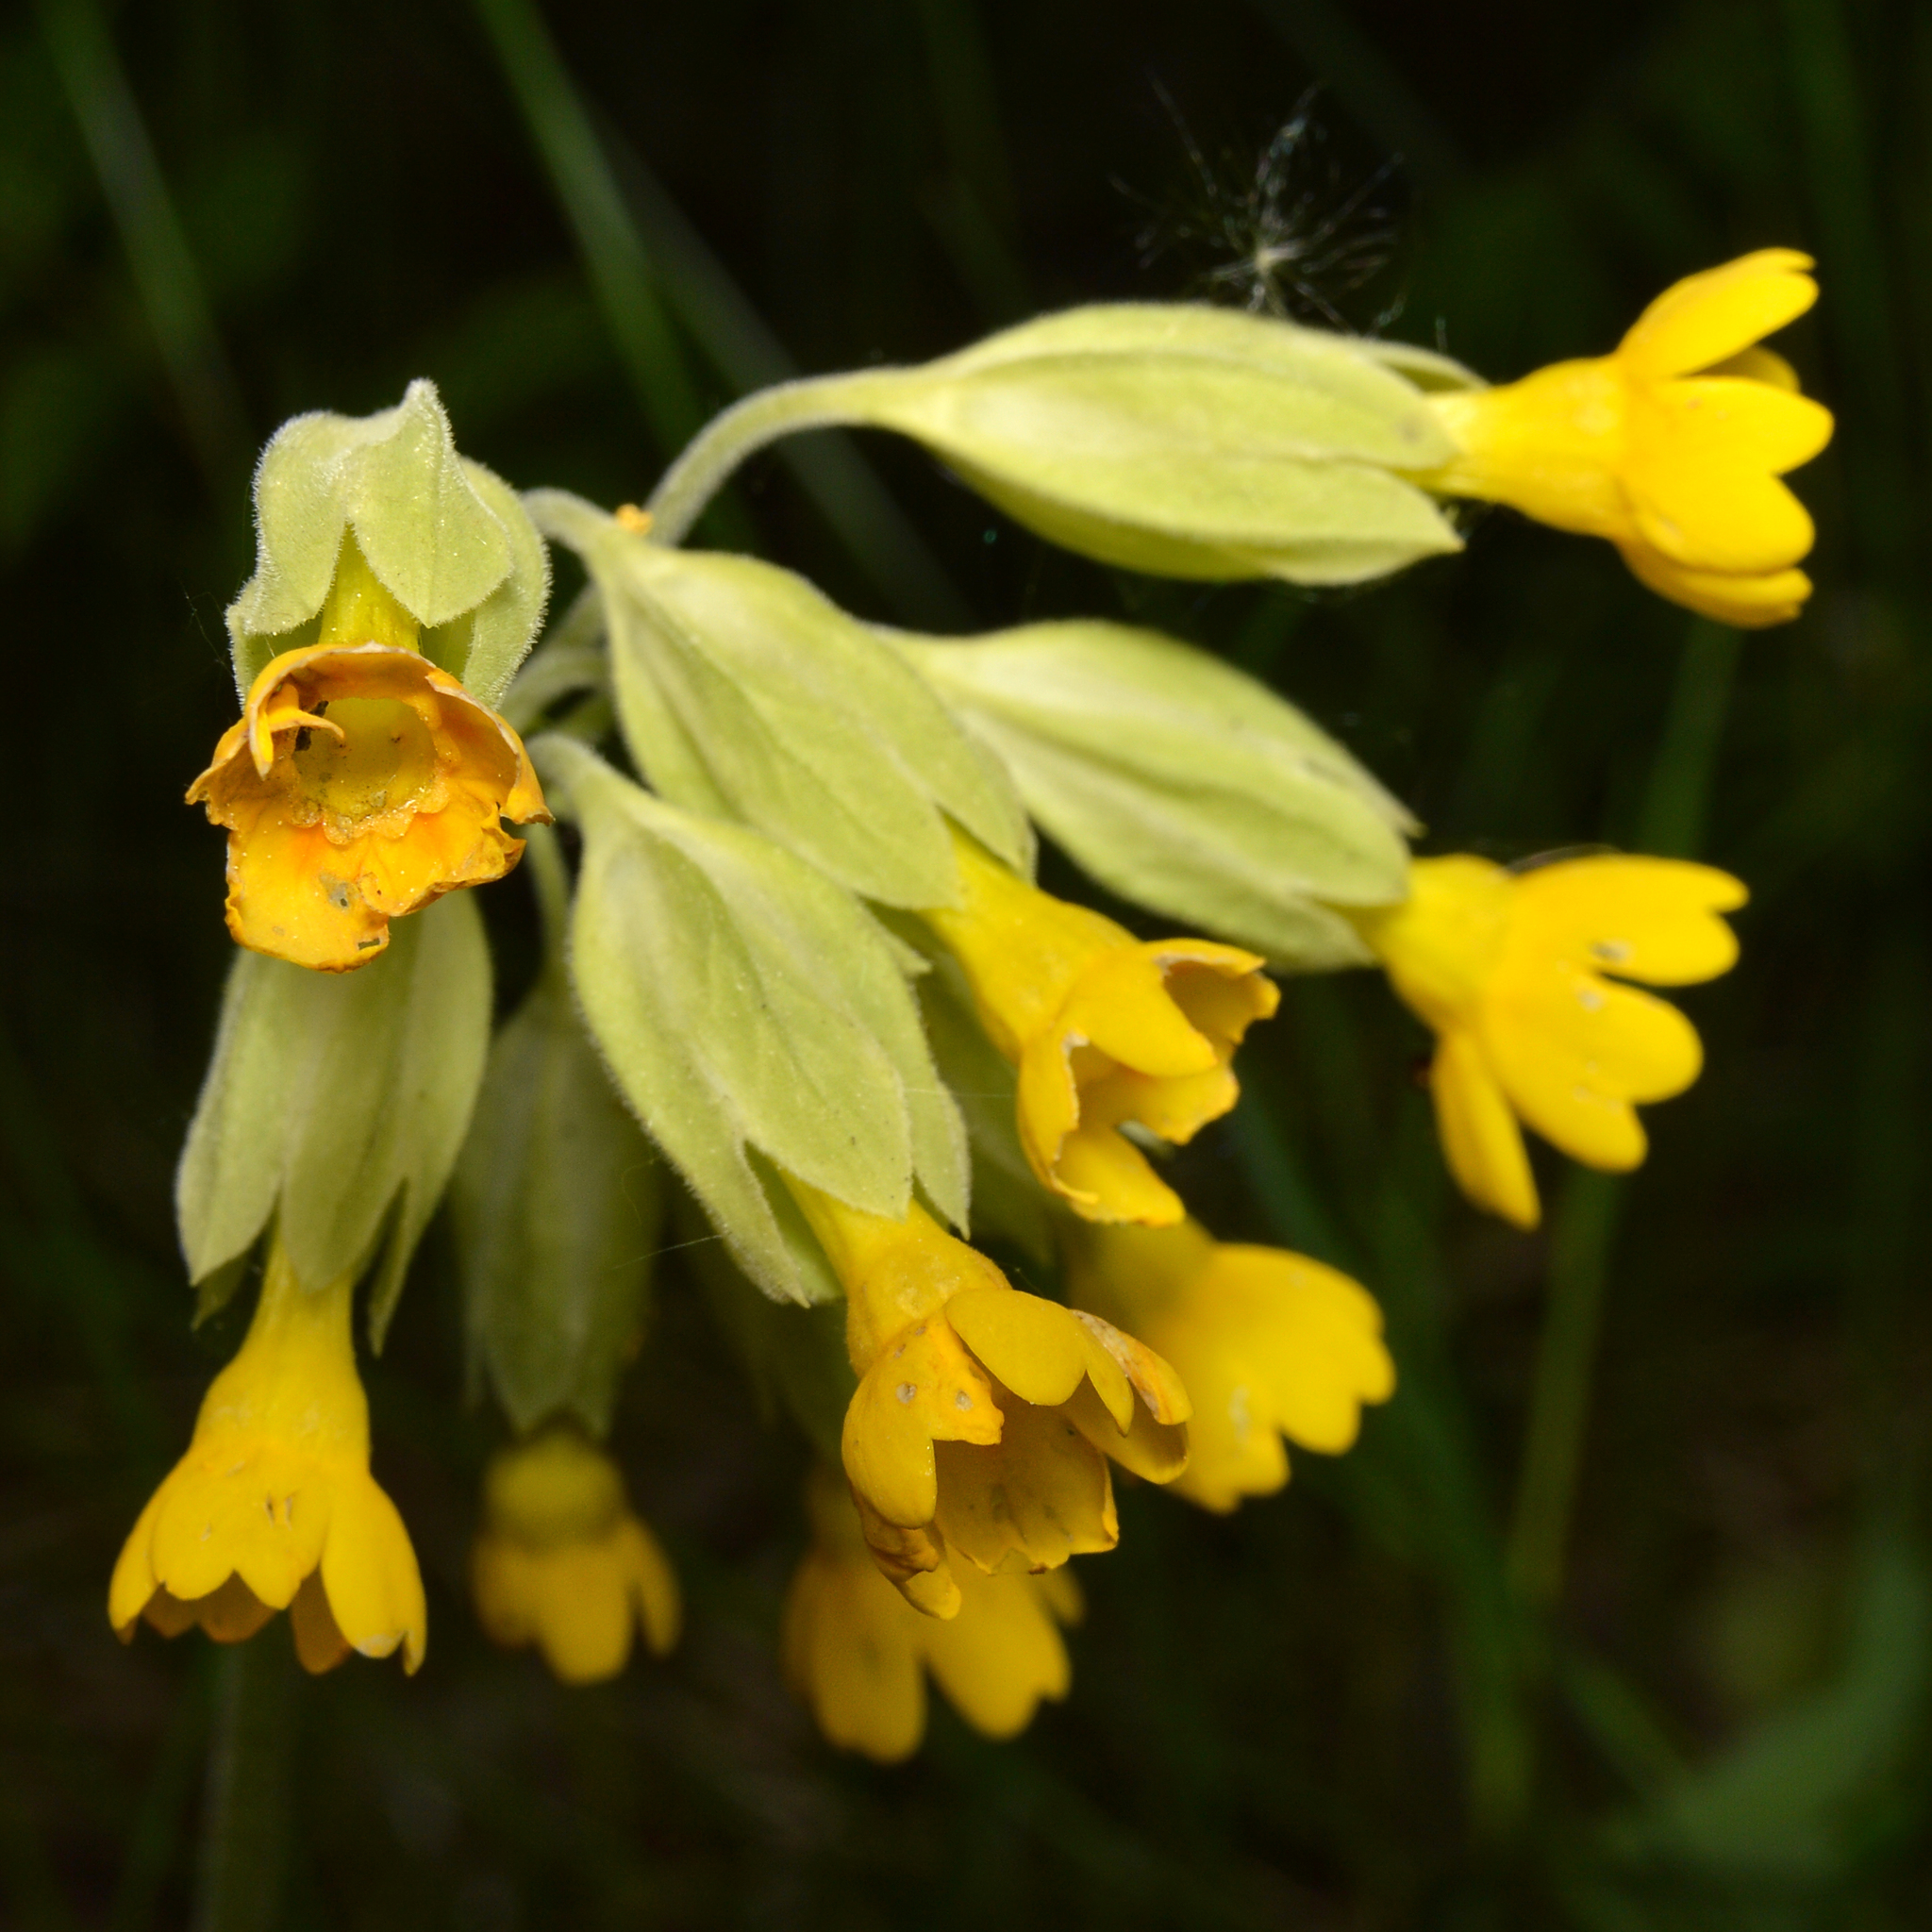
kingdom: Plantae
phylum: Tracheophyta
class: Magnoliopsida
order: Ericales
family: Primulaceae
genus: Primula
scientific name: Primula veris
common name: Cowslip
